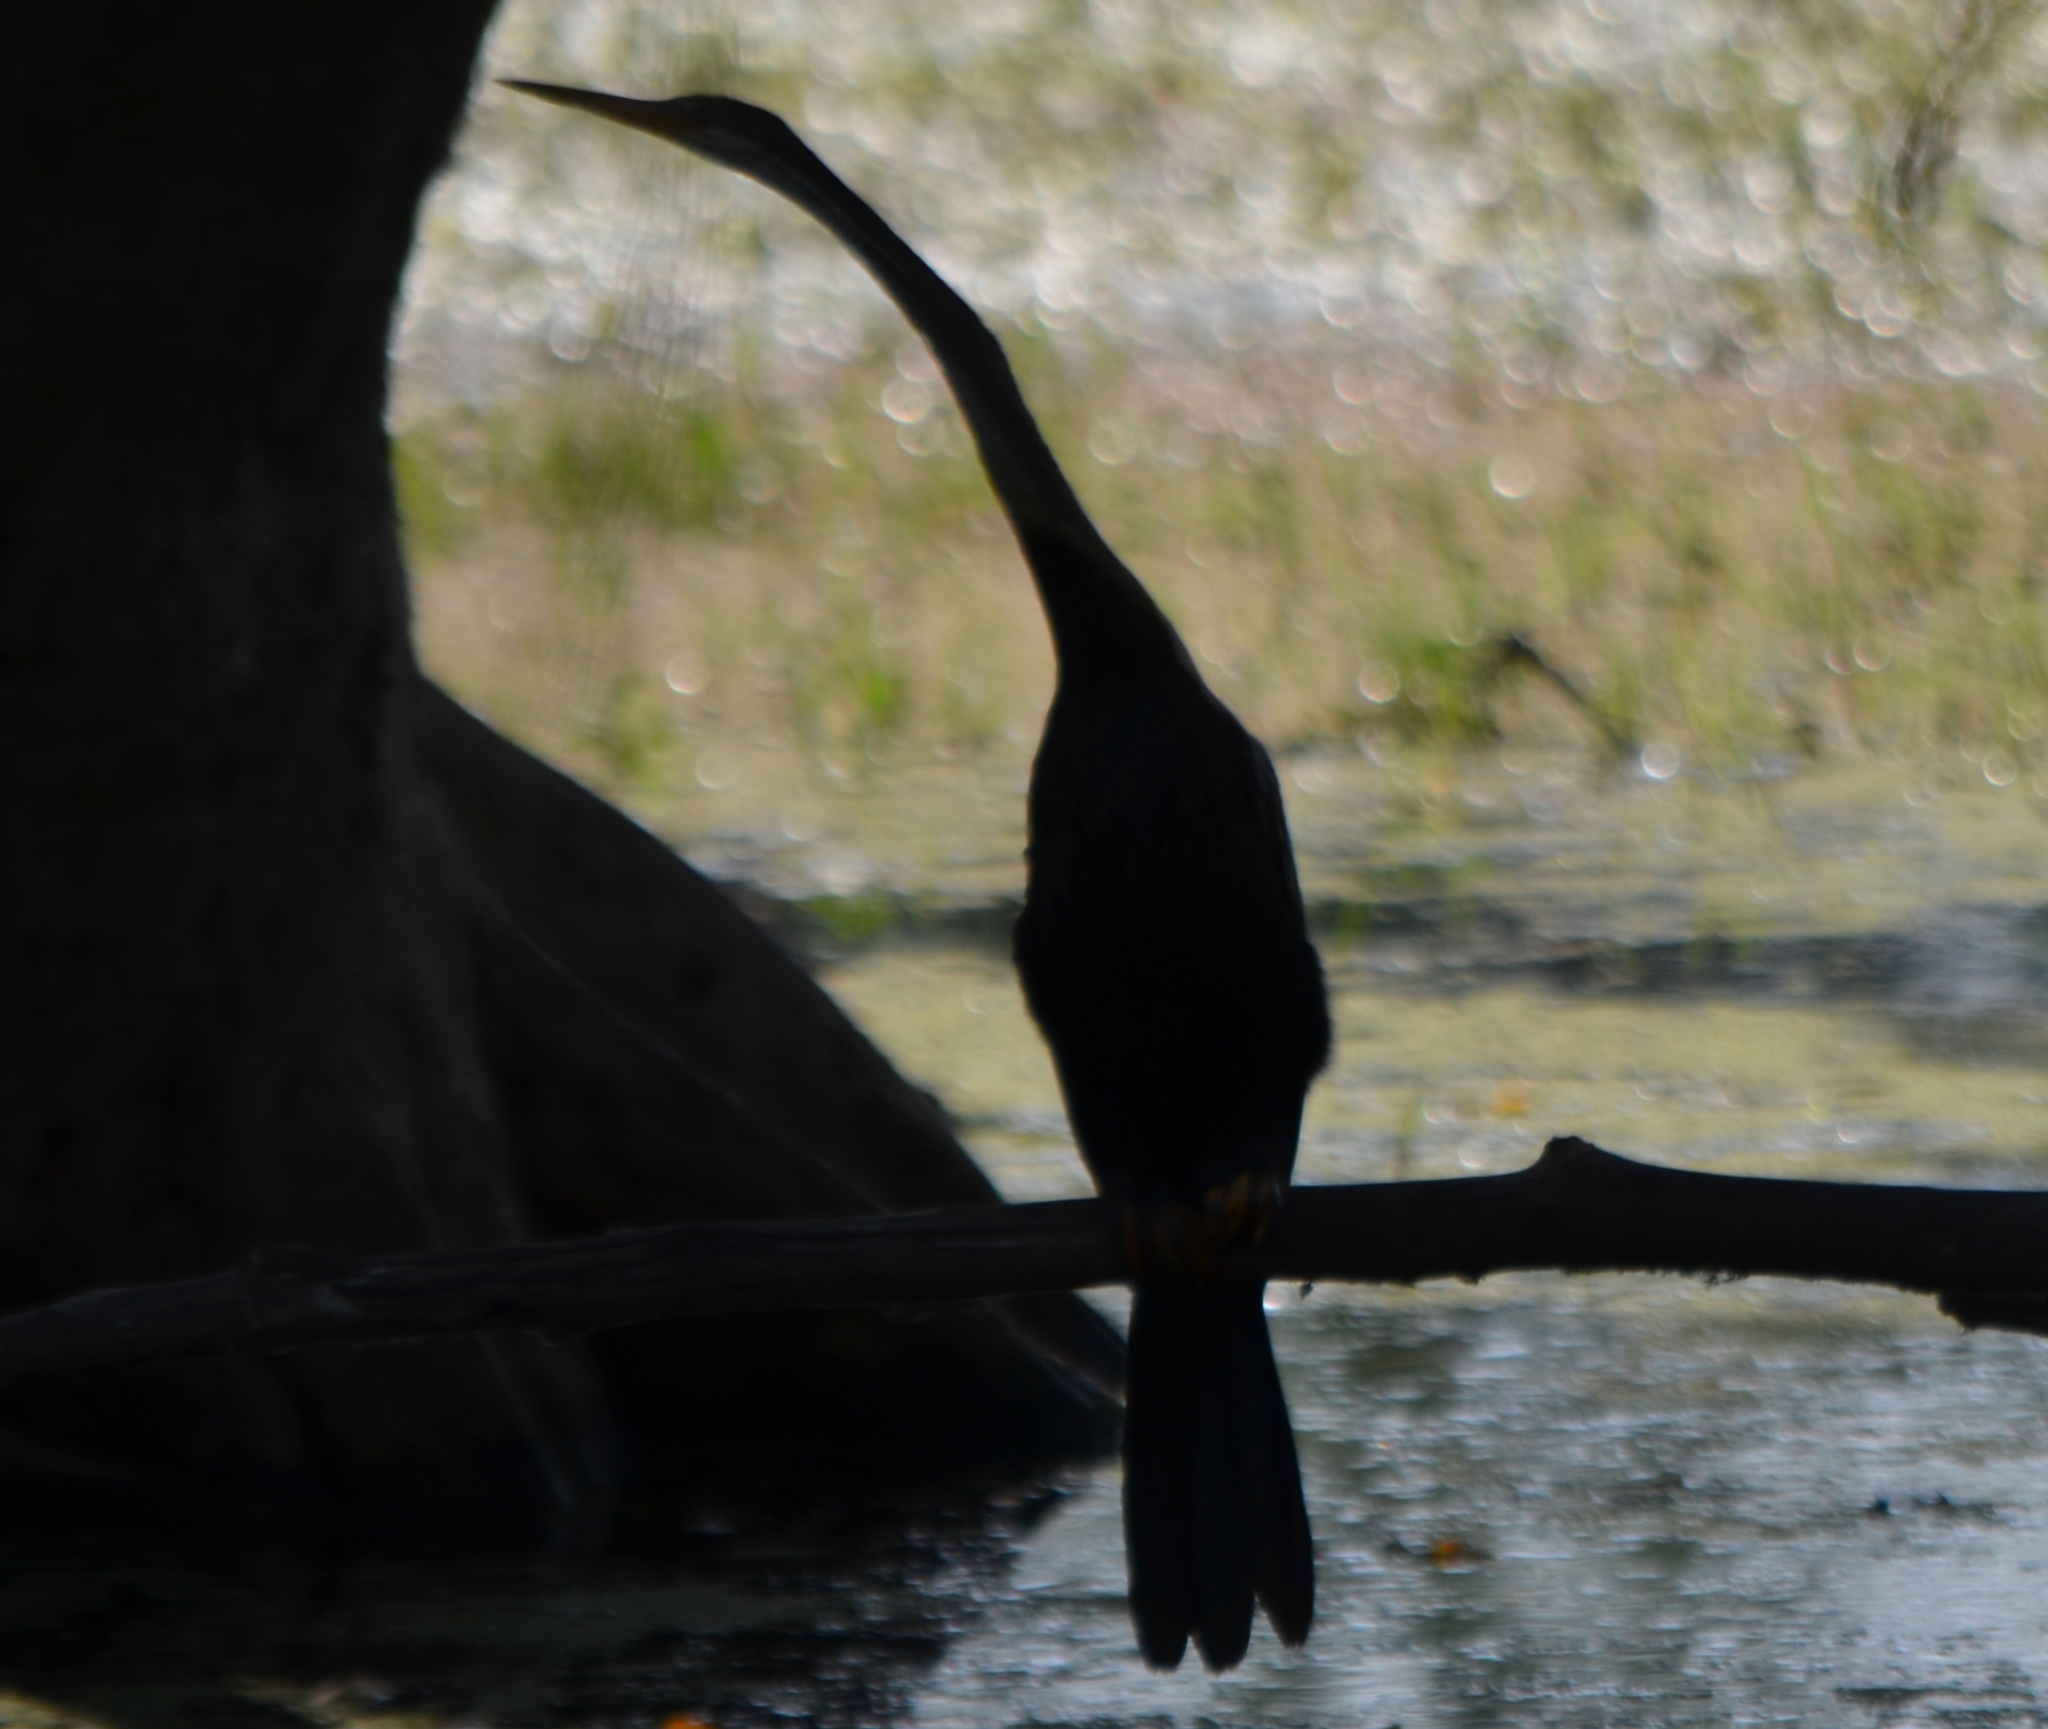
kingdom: Animalia
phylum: Chordata
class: Aves
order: Suliformes
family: Anhingidae
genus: Anhinga
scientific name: Anhinga melanogaster
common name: Oriental darter
